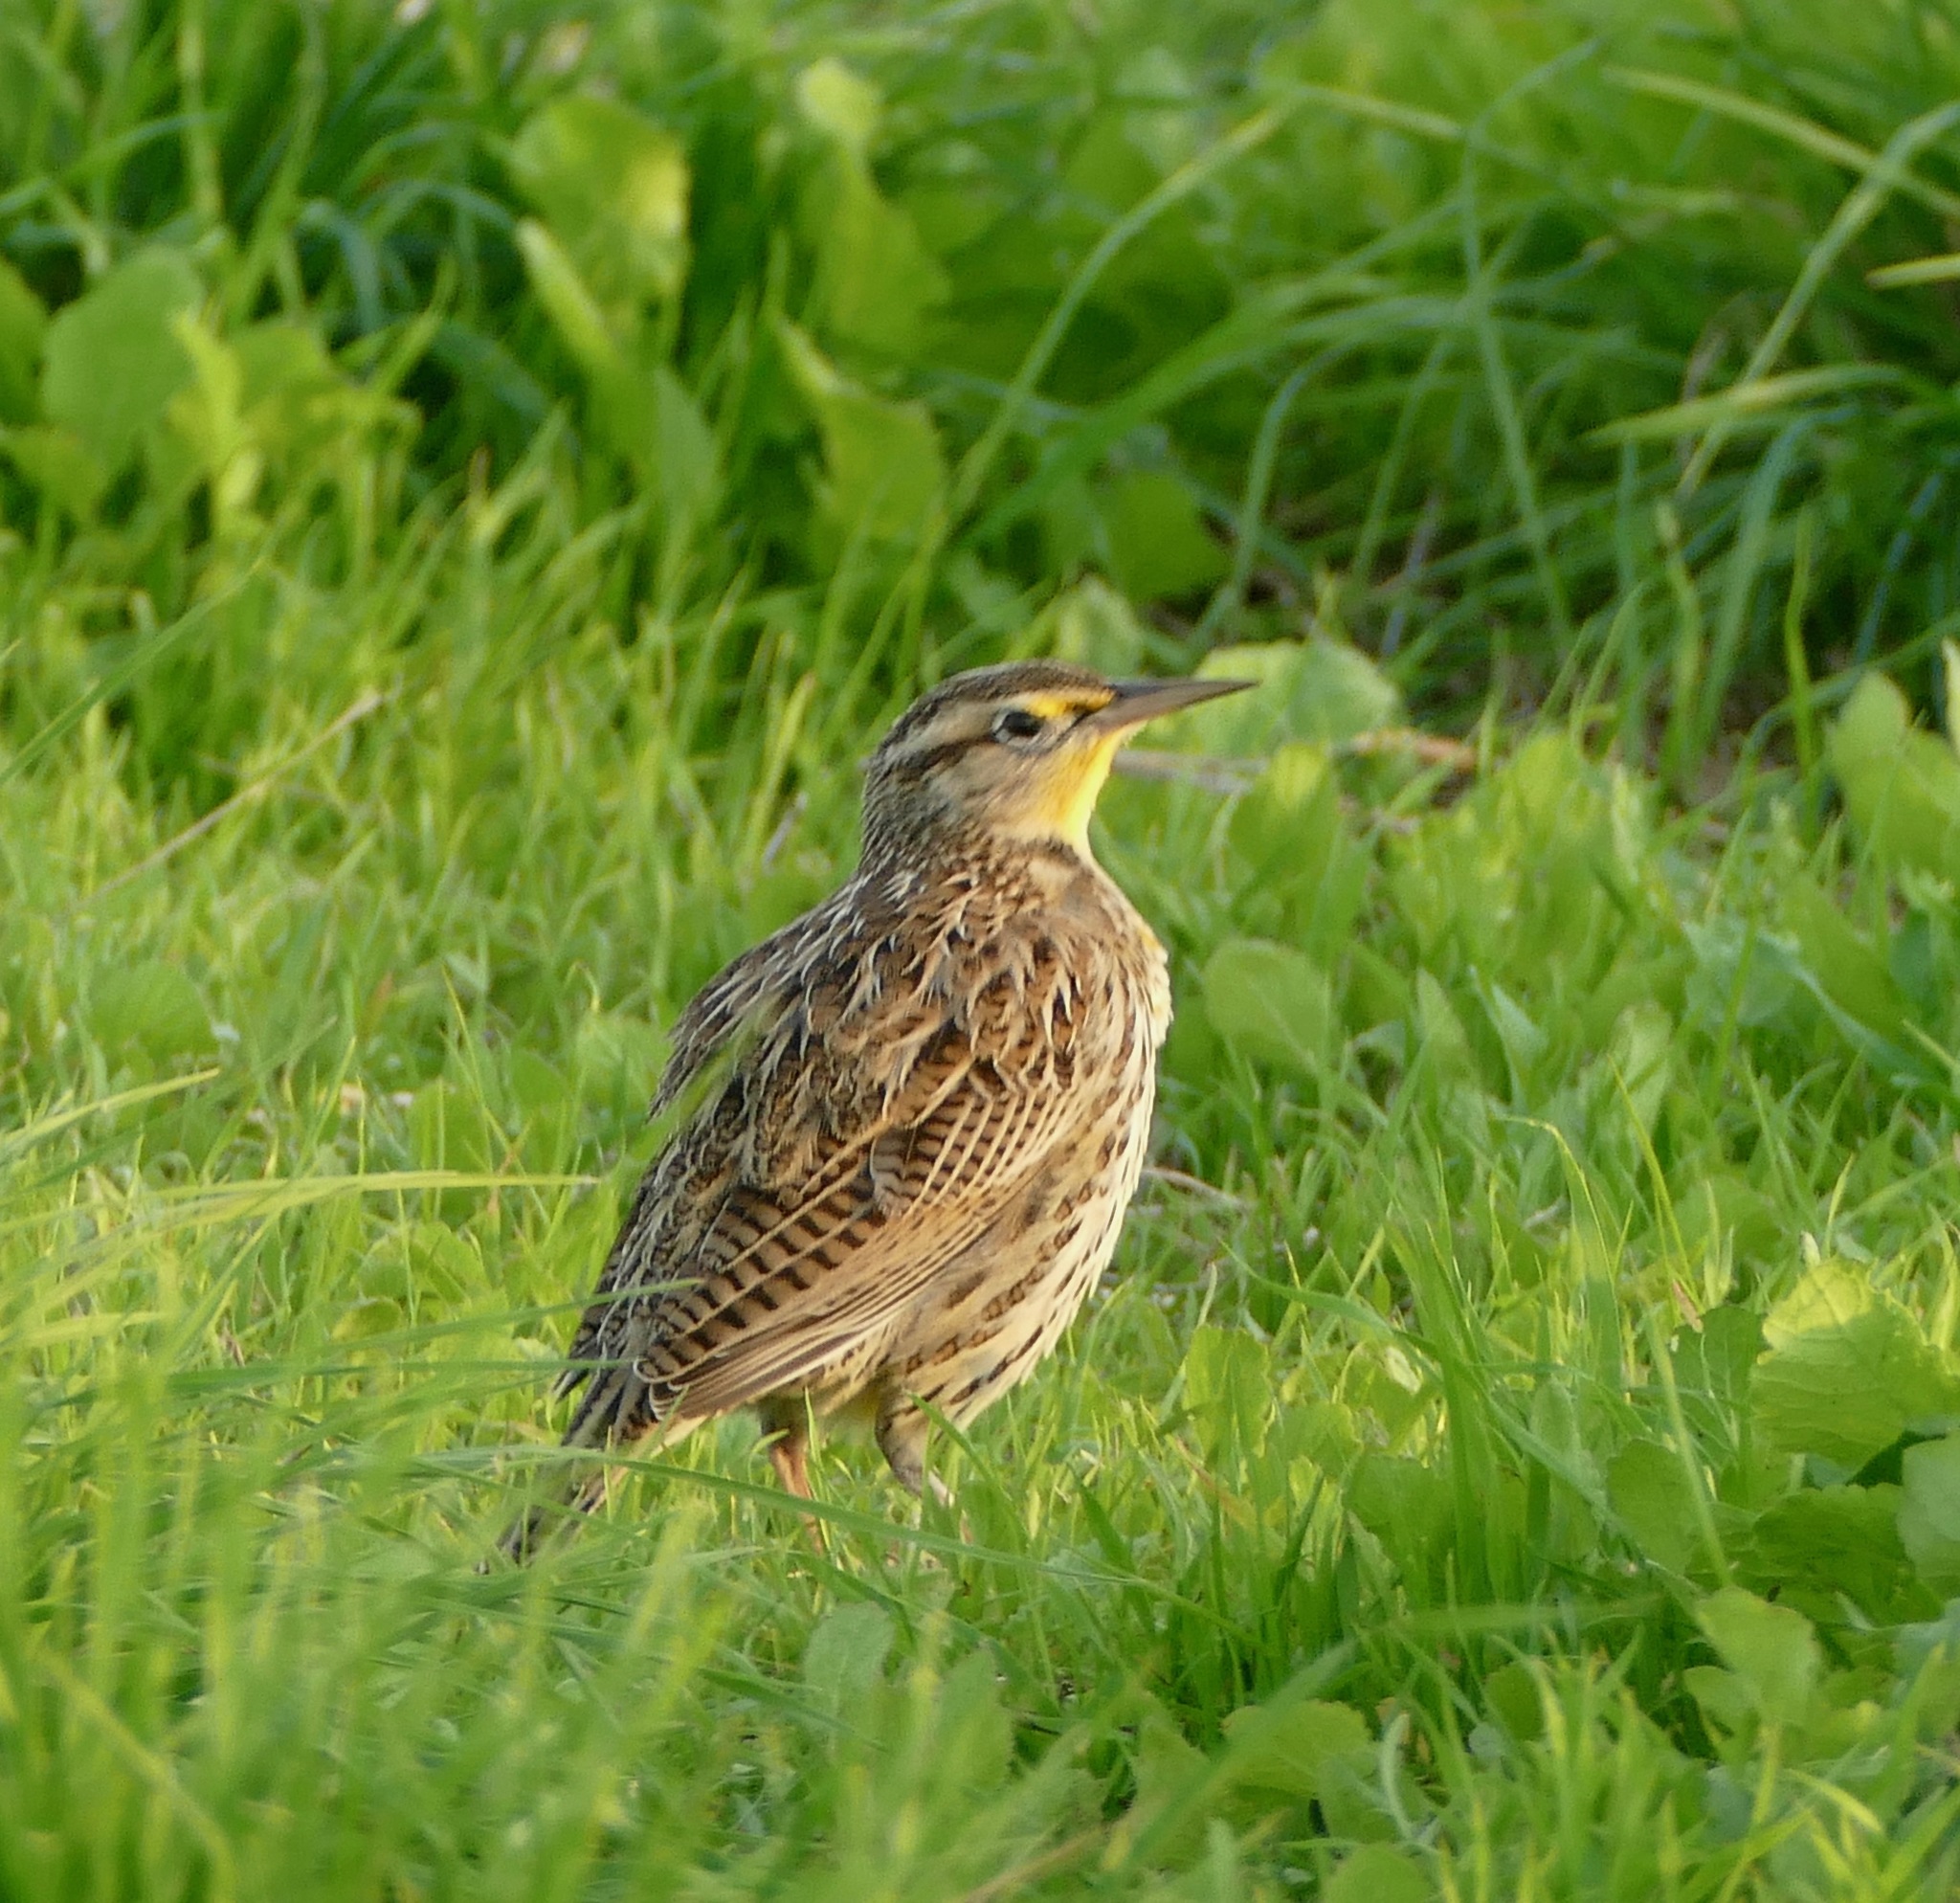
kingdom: Animalia
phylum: Chordata
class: Aves
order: Passeriformes
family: Icteridae
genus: Sturnella
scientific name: Sturnella neglecta
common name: Western meadowlark
